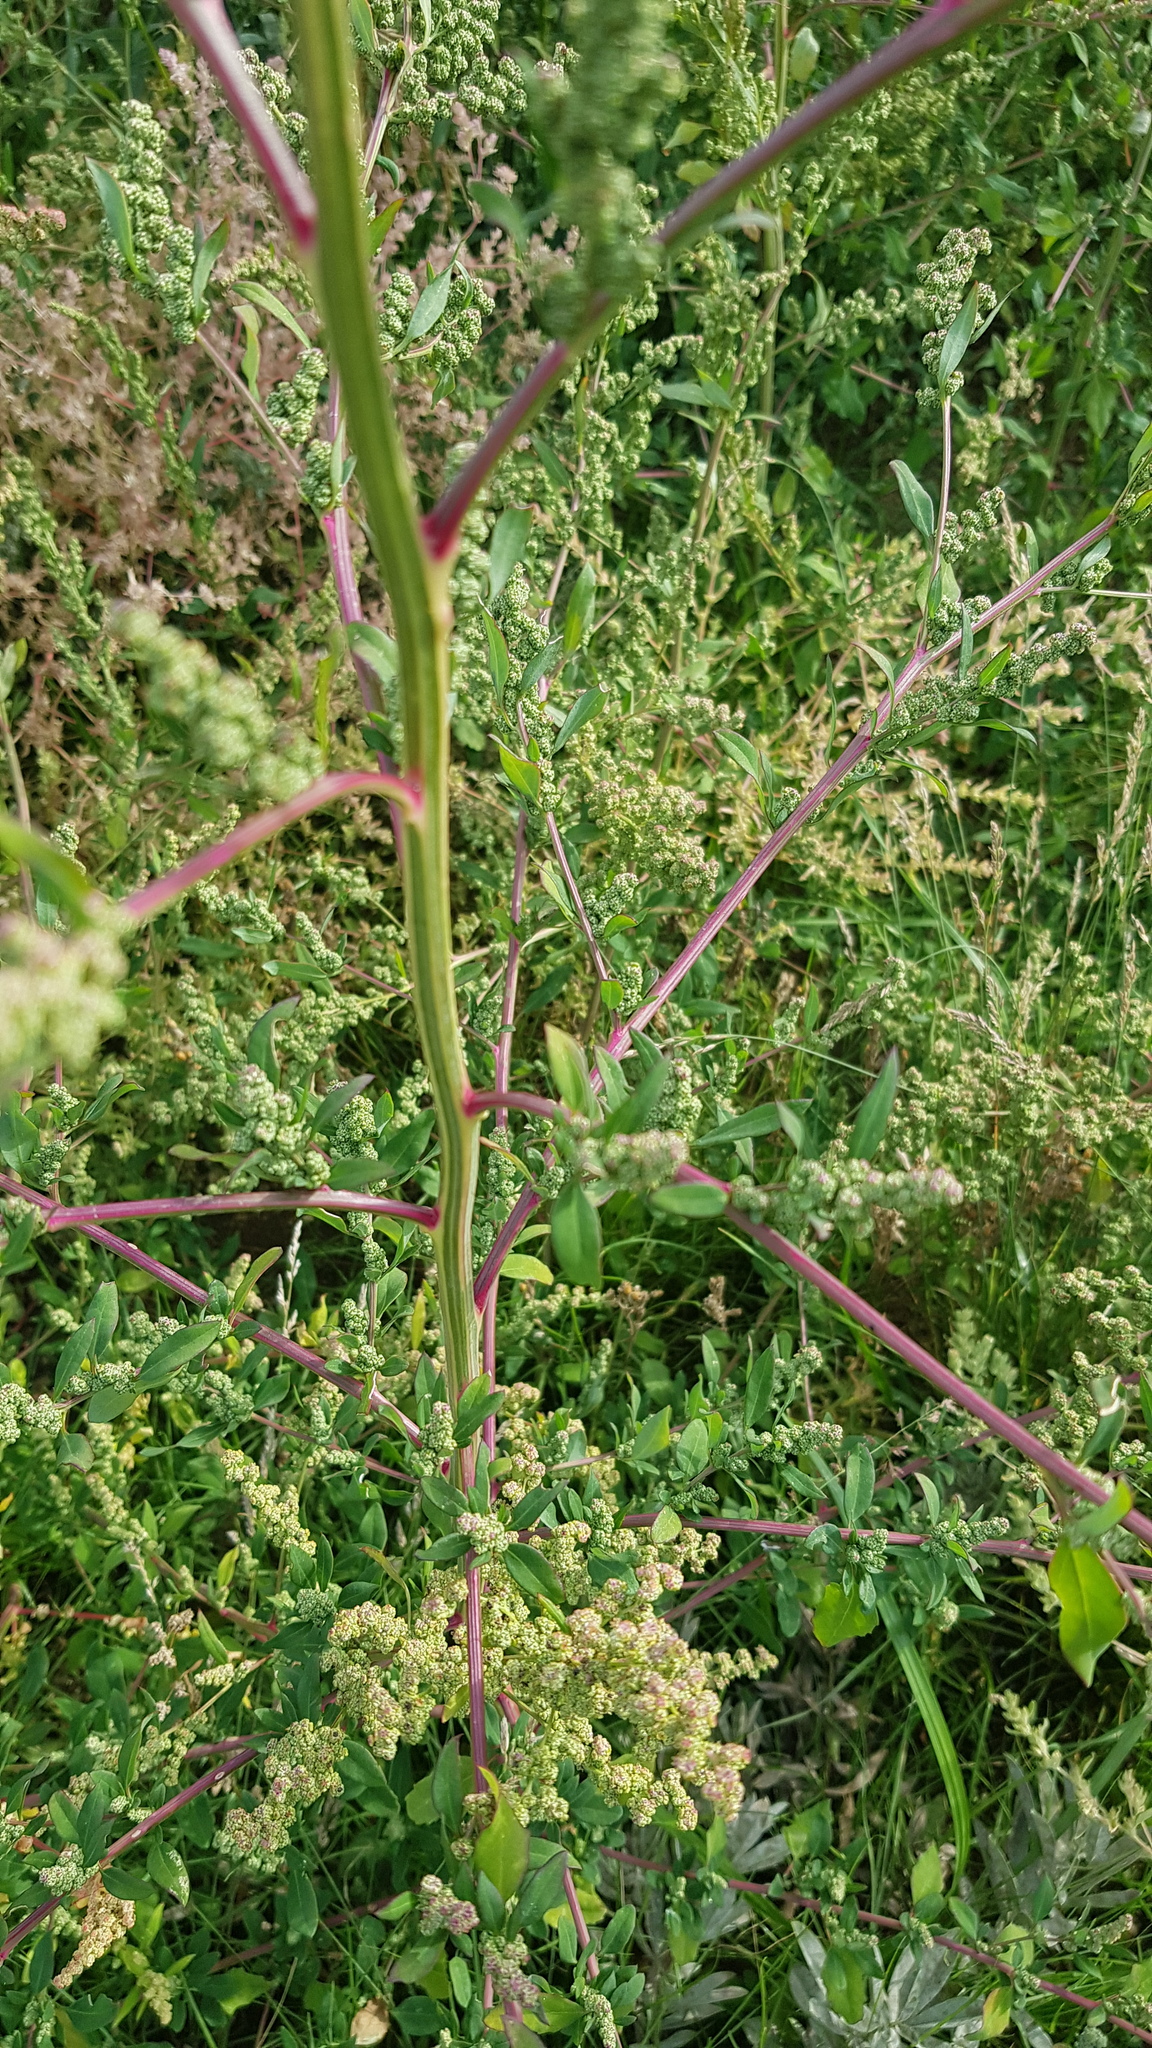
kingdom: Plantae
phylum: Tracheophyta
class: Magnoliopsida
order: Caryophyllales
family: Amaranthaceae
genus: Chenopodium
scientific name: Chenopodium acuminatum
